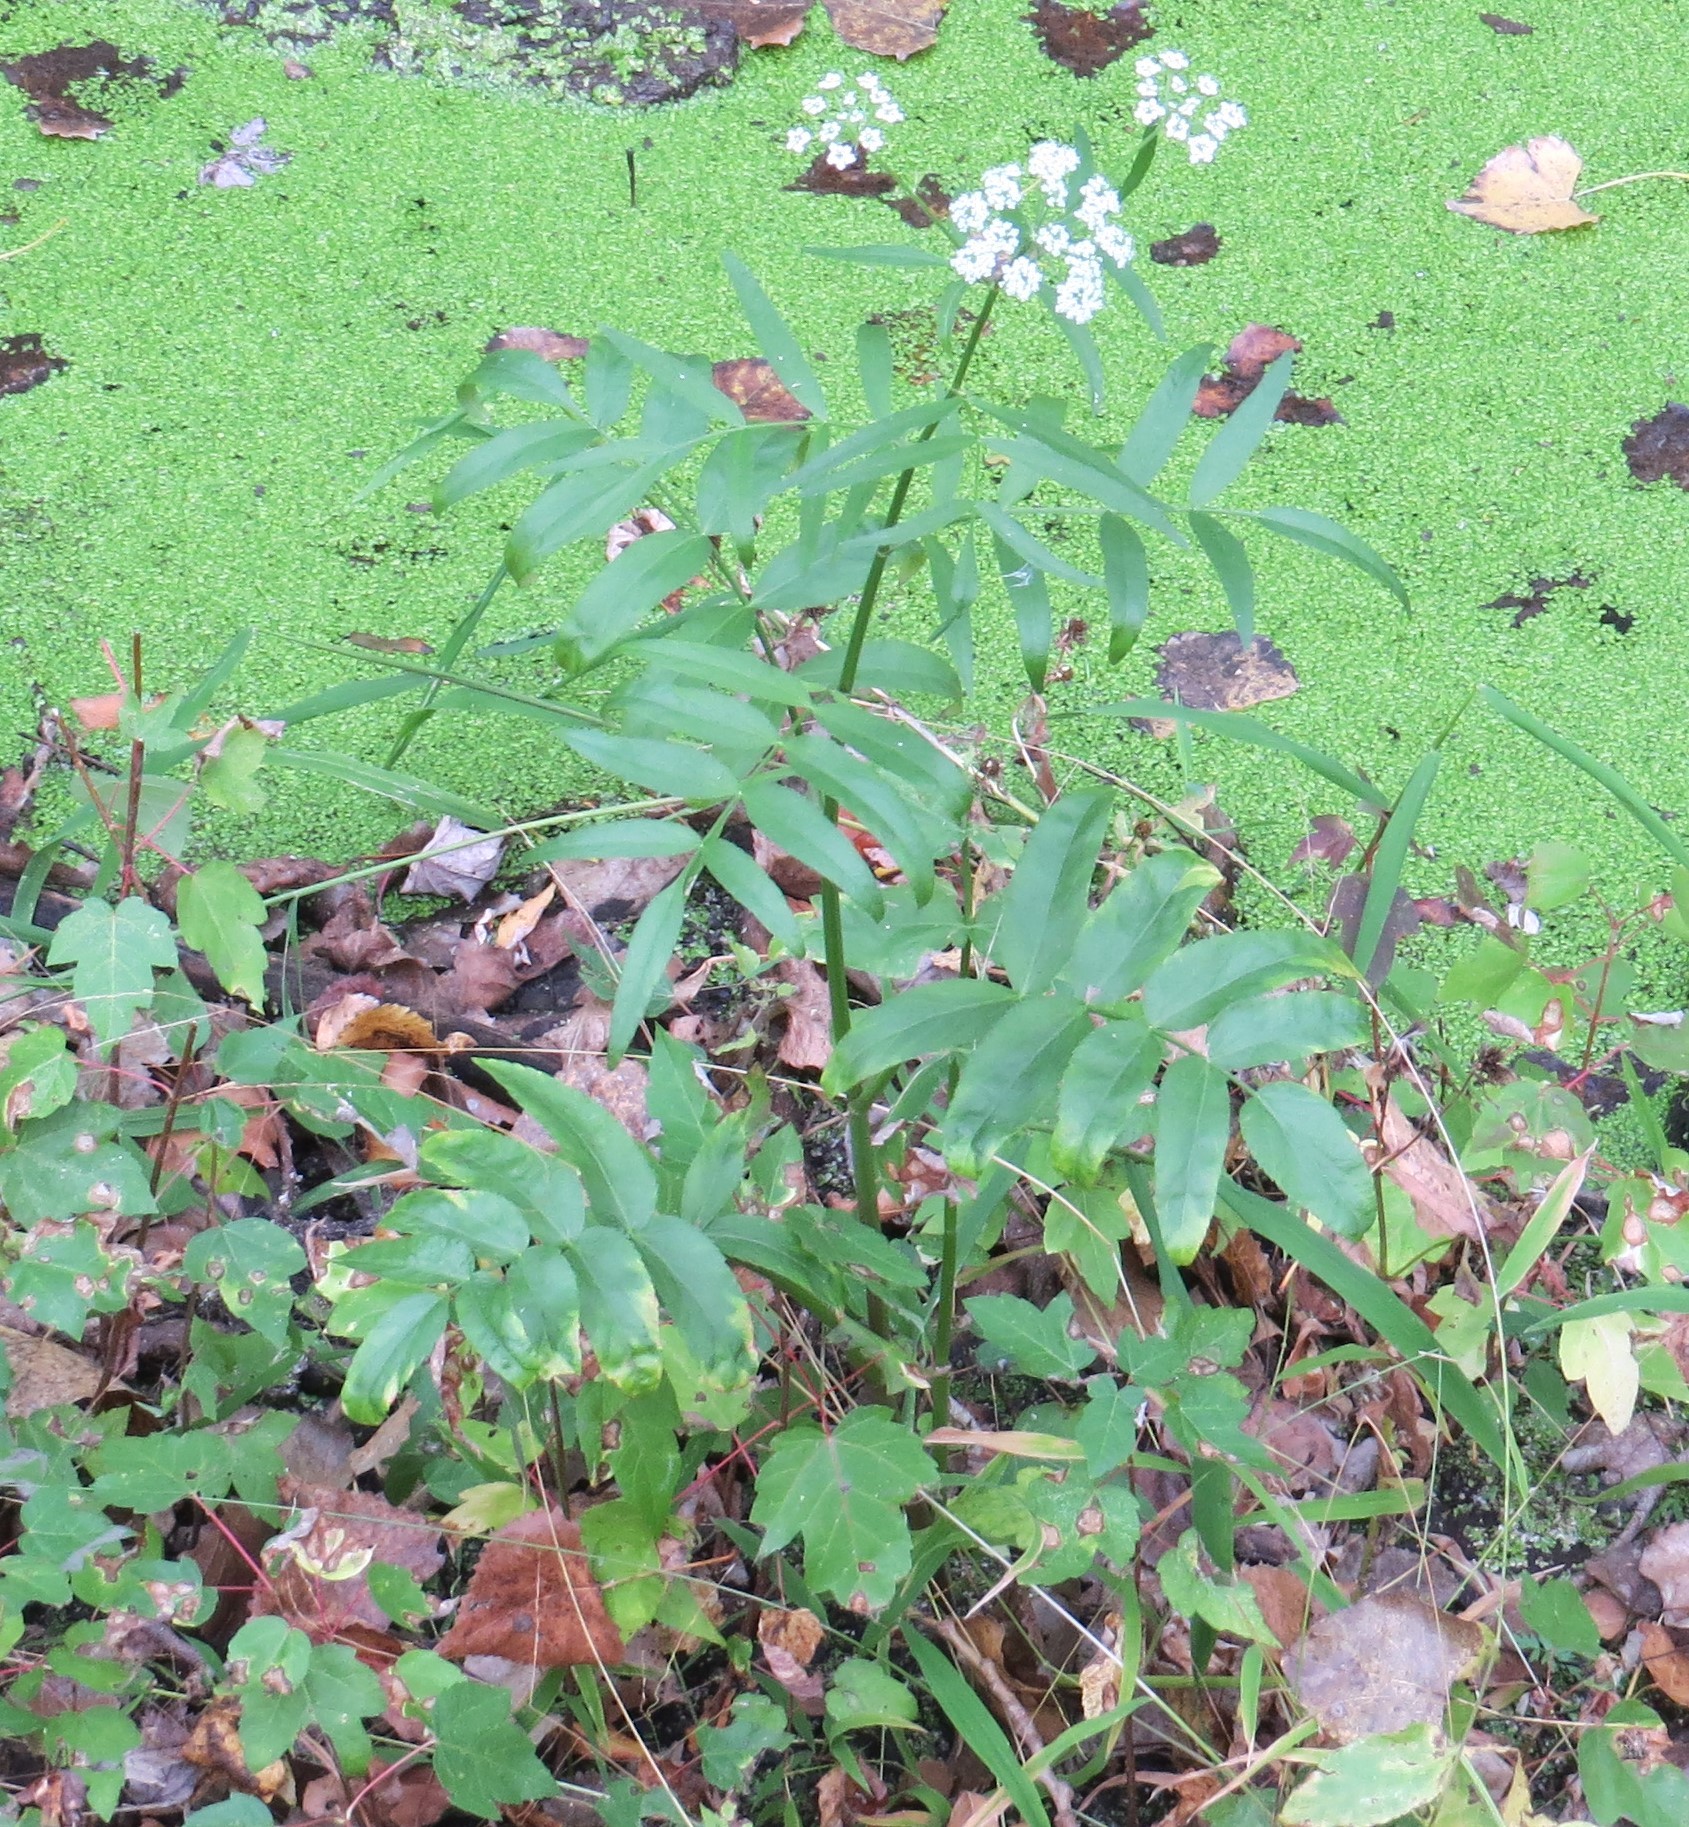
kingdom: Plantae
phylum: Tracheophyta
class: Magnoliopsida
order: Apiales
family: Apiaceae
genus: Sium
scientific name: Sium suave
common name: Hemlock water-parsnip
